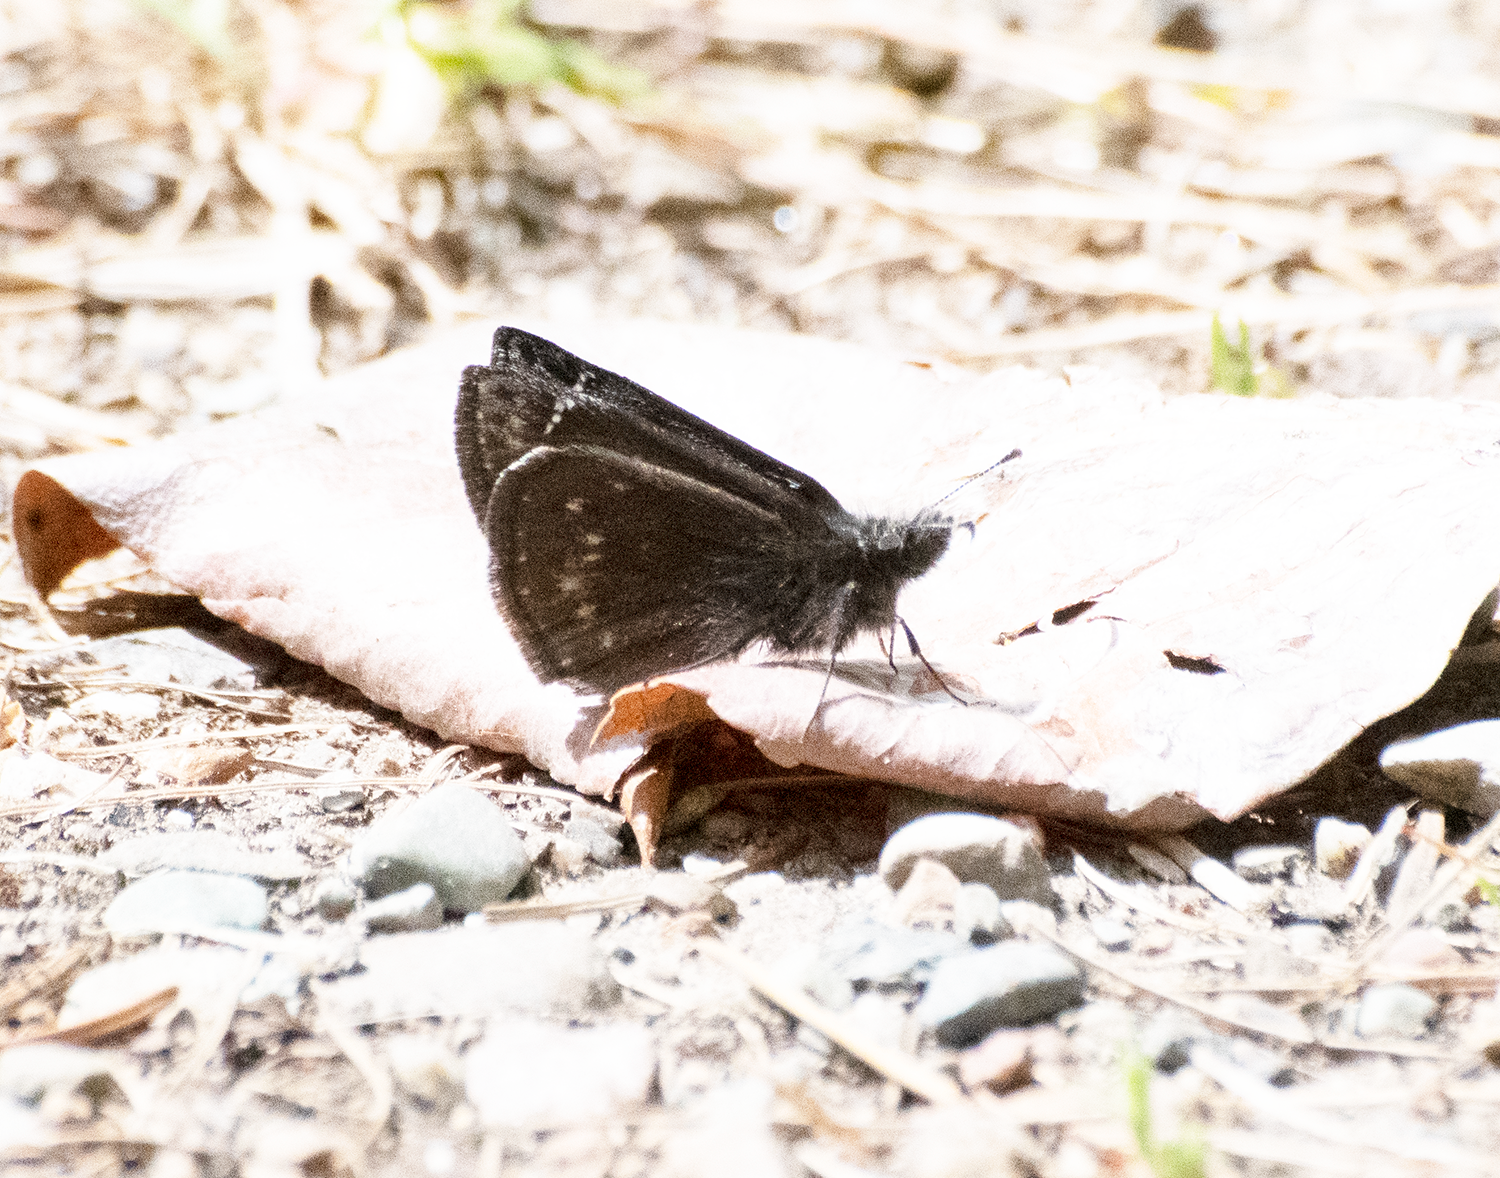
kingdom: Animalia
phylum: Arthropoda
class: Insecta
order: Lepidoptera
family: Hesperiidae
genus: Erynnis
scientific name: Erynnis persius
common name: Persius duskywing
